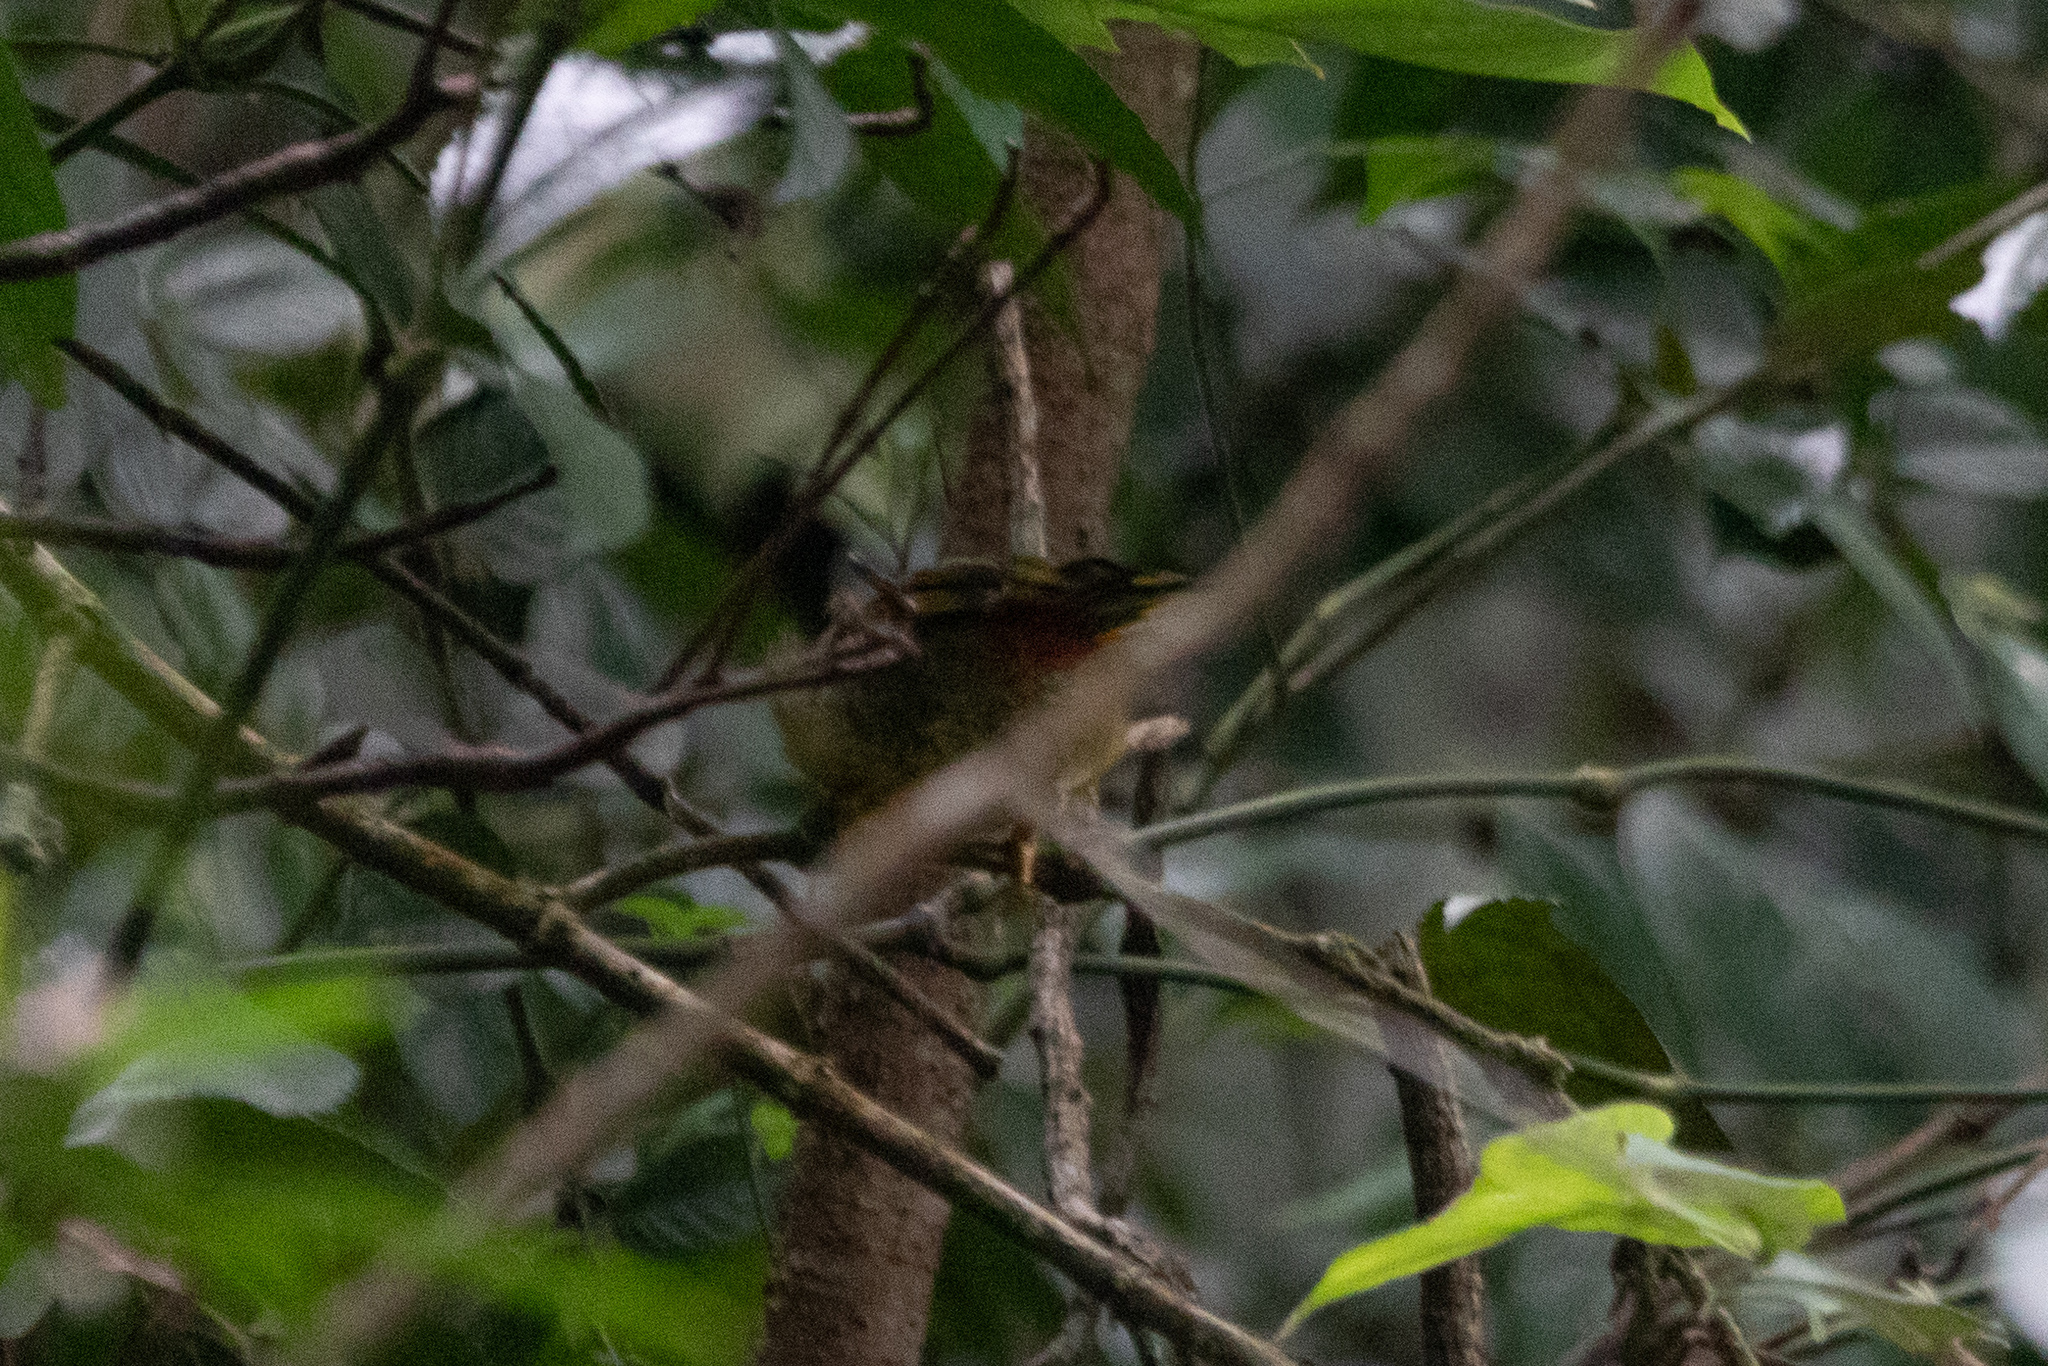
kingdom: Animalia
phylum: Chordata
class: Aves
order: Passeriformes
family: Leiothrichidae
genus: Leiothrix
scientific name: Leiothrix argentauris
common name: Silver-eared mesia
